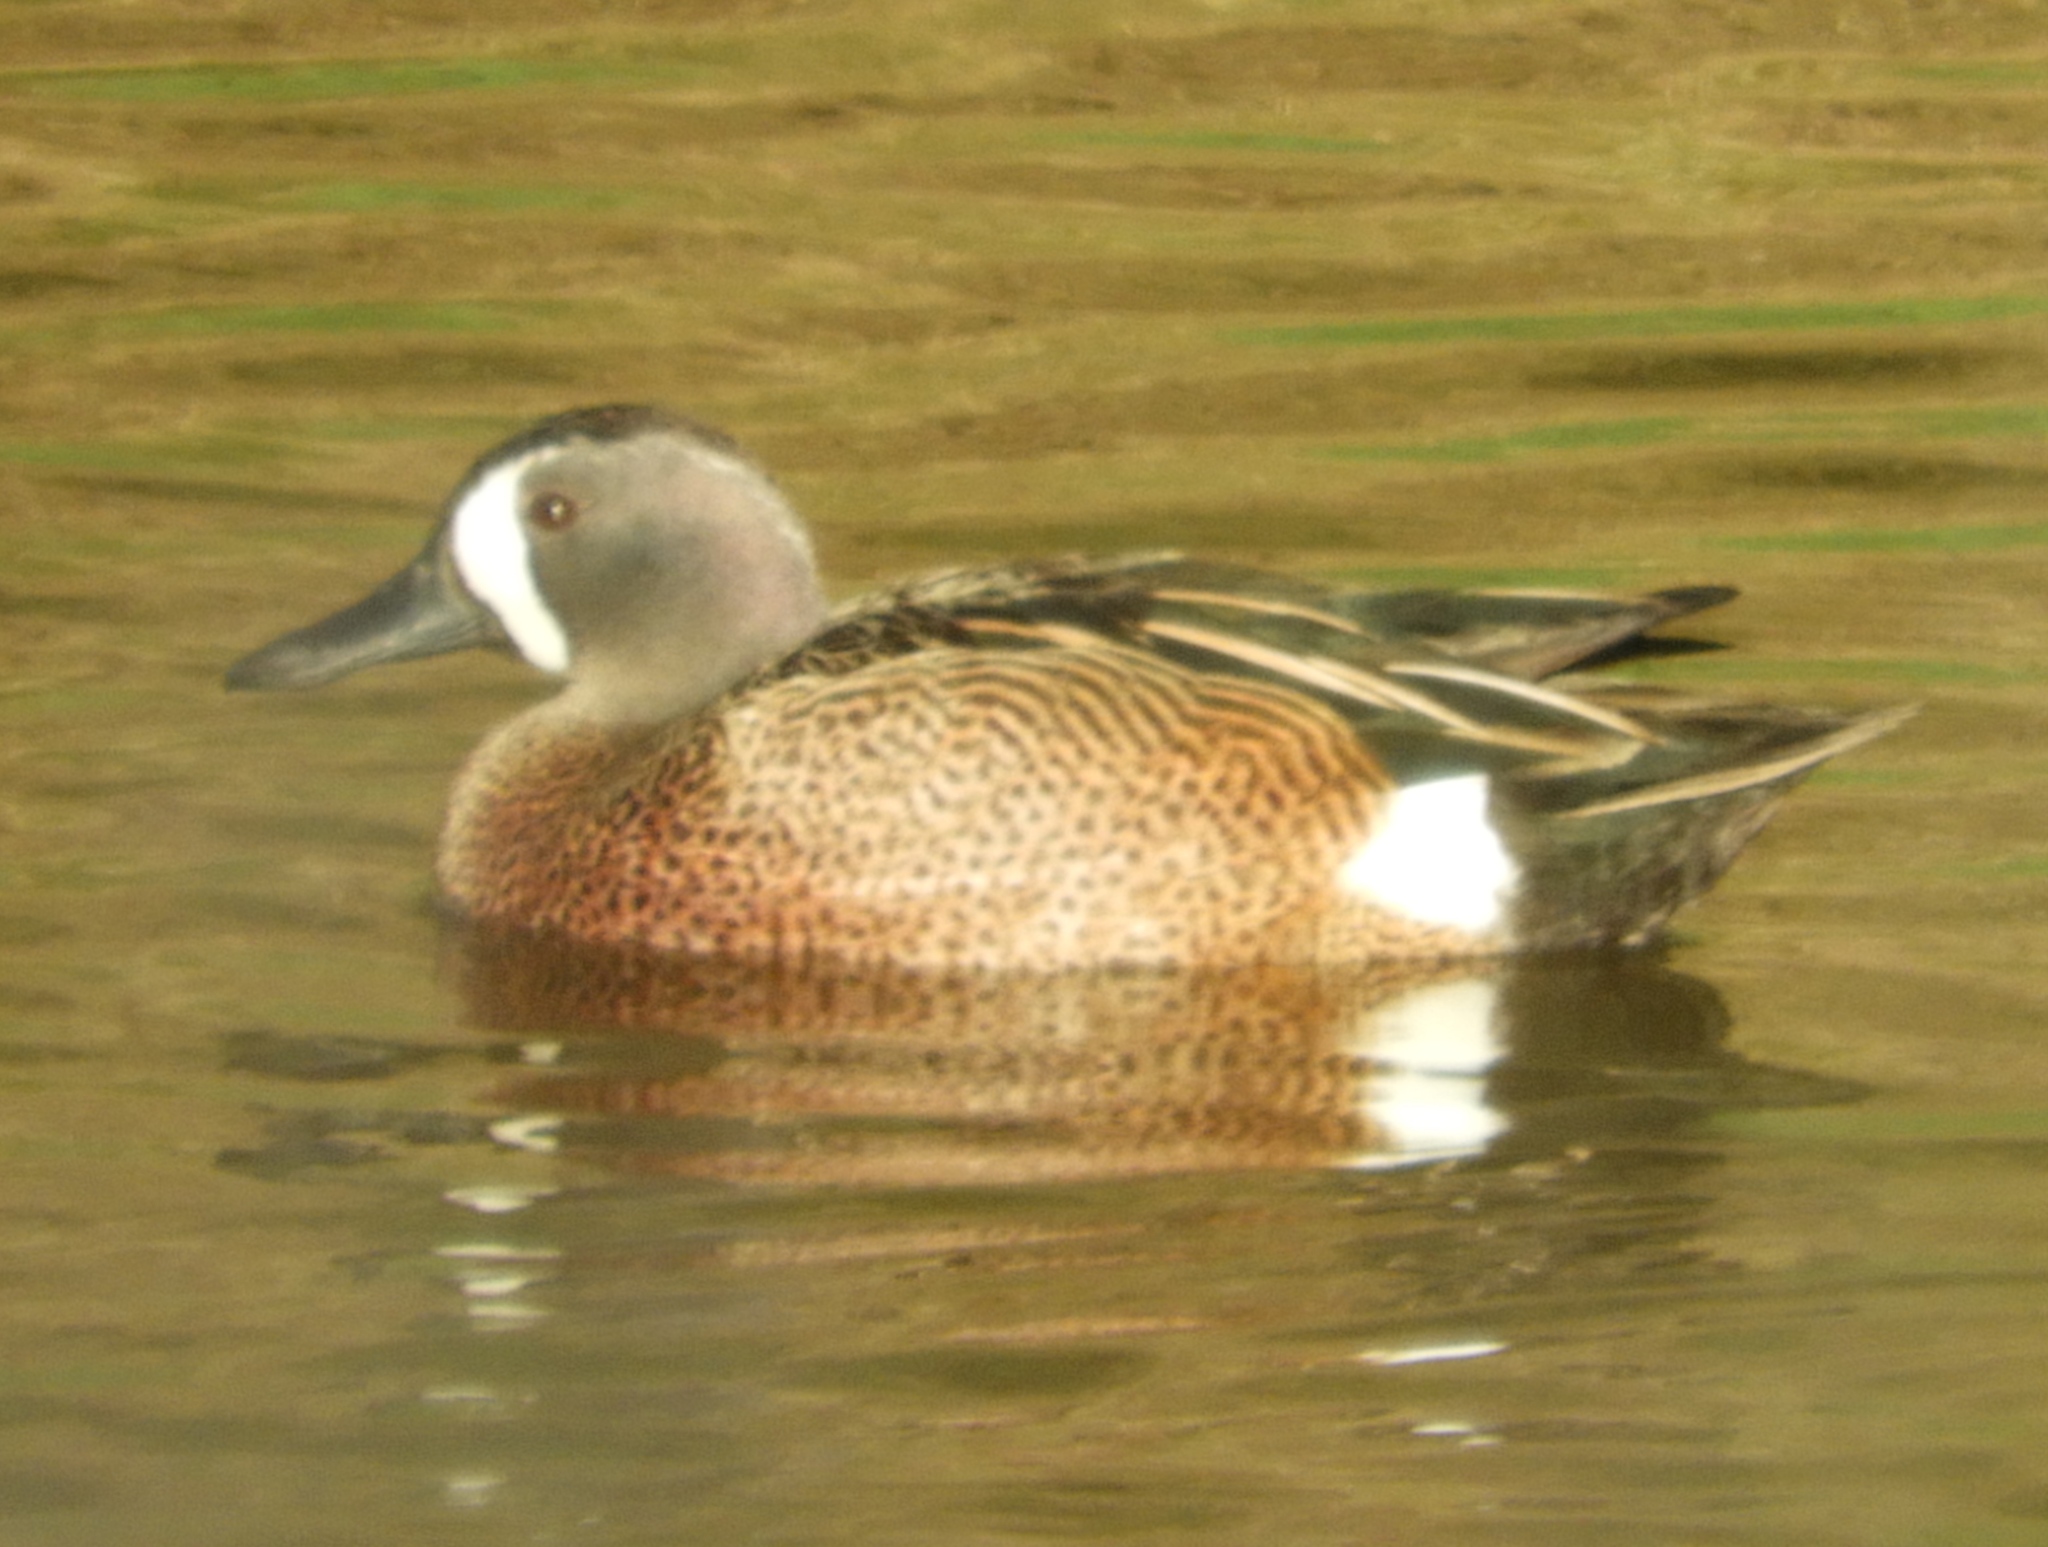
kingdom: Animalia
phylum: Chordata
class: Aves
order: Anseriformes
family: Anatidae
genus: Spatula
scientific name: Spatula discors
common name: Blue-winged teal
